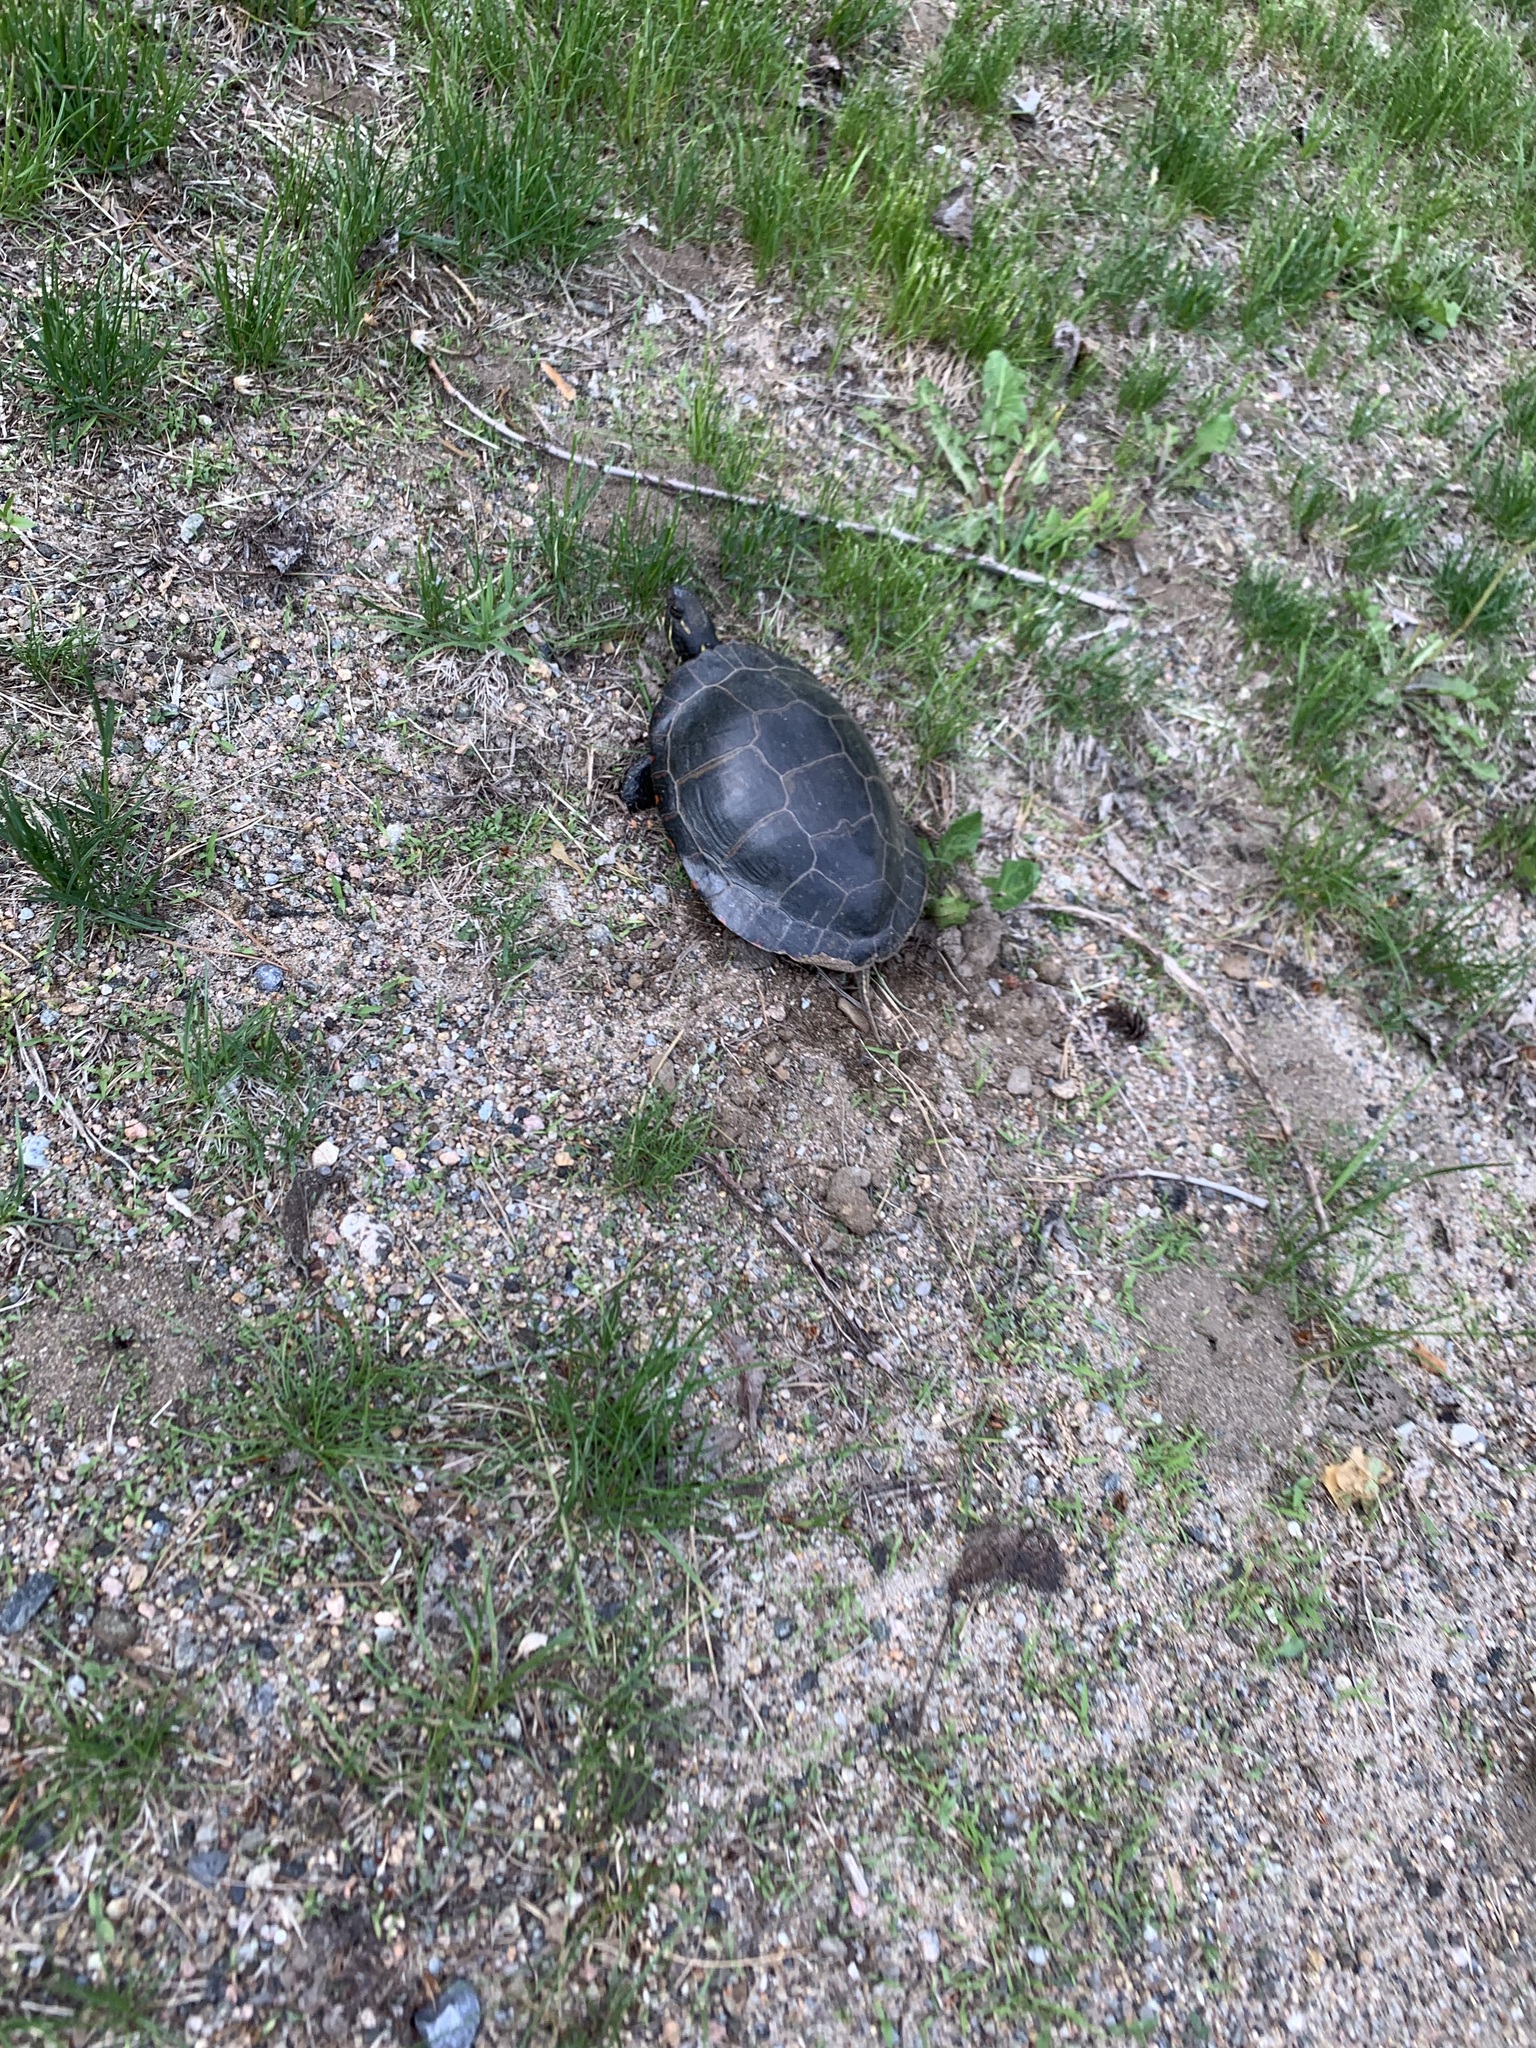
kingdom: Animalia
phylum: Chordata
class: Testudines
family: Emydidae
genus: Chrysemys
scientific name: Chrysemys picta
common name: Painted turtle
